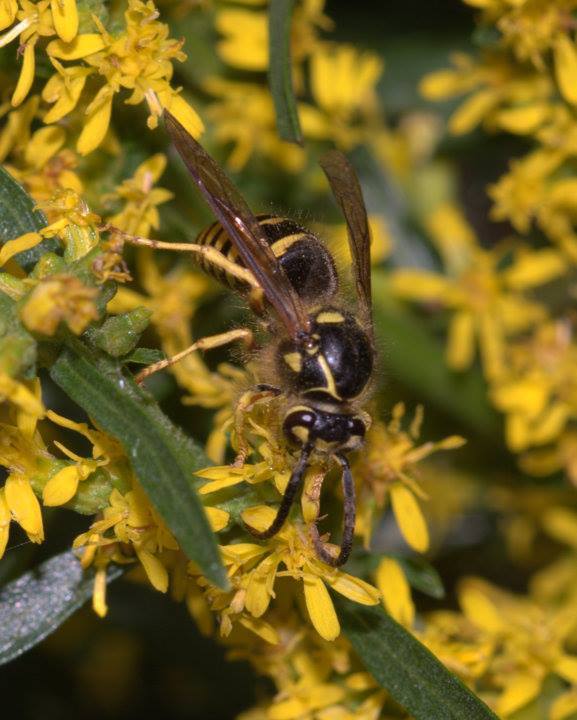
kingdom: Animalia
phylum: Arthropoda
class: Insecta
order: Hymenoptera
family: Vespidae
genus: Dolichovespula
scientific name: Dolichovespula arenaria
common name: Aerial yellowjacket
